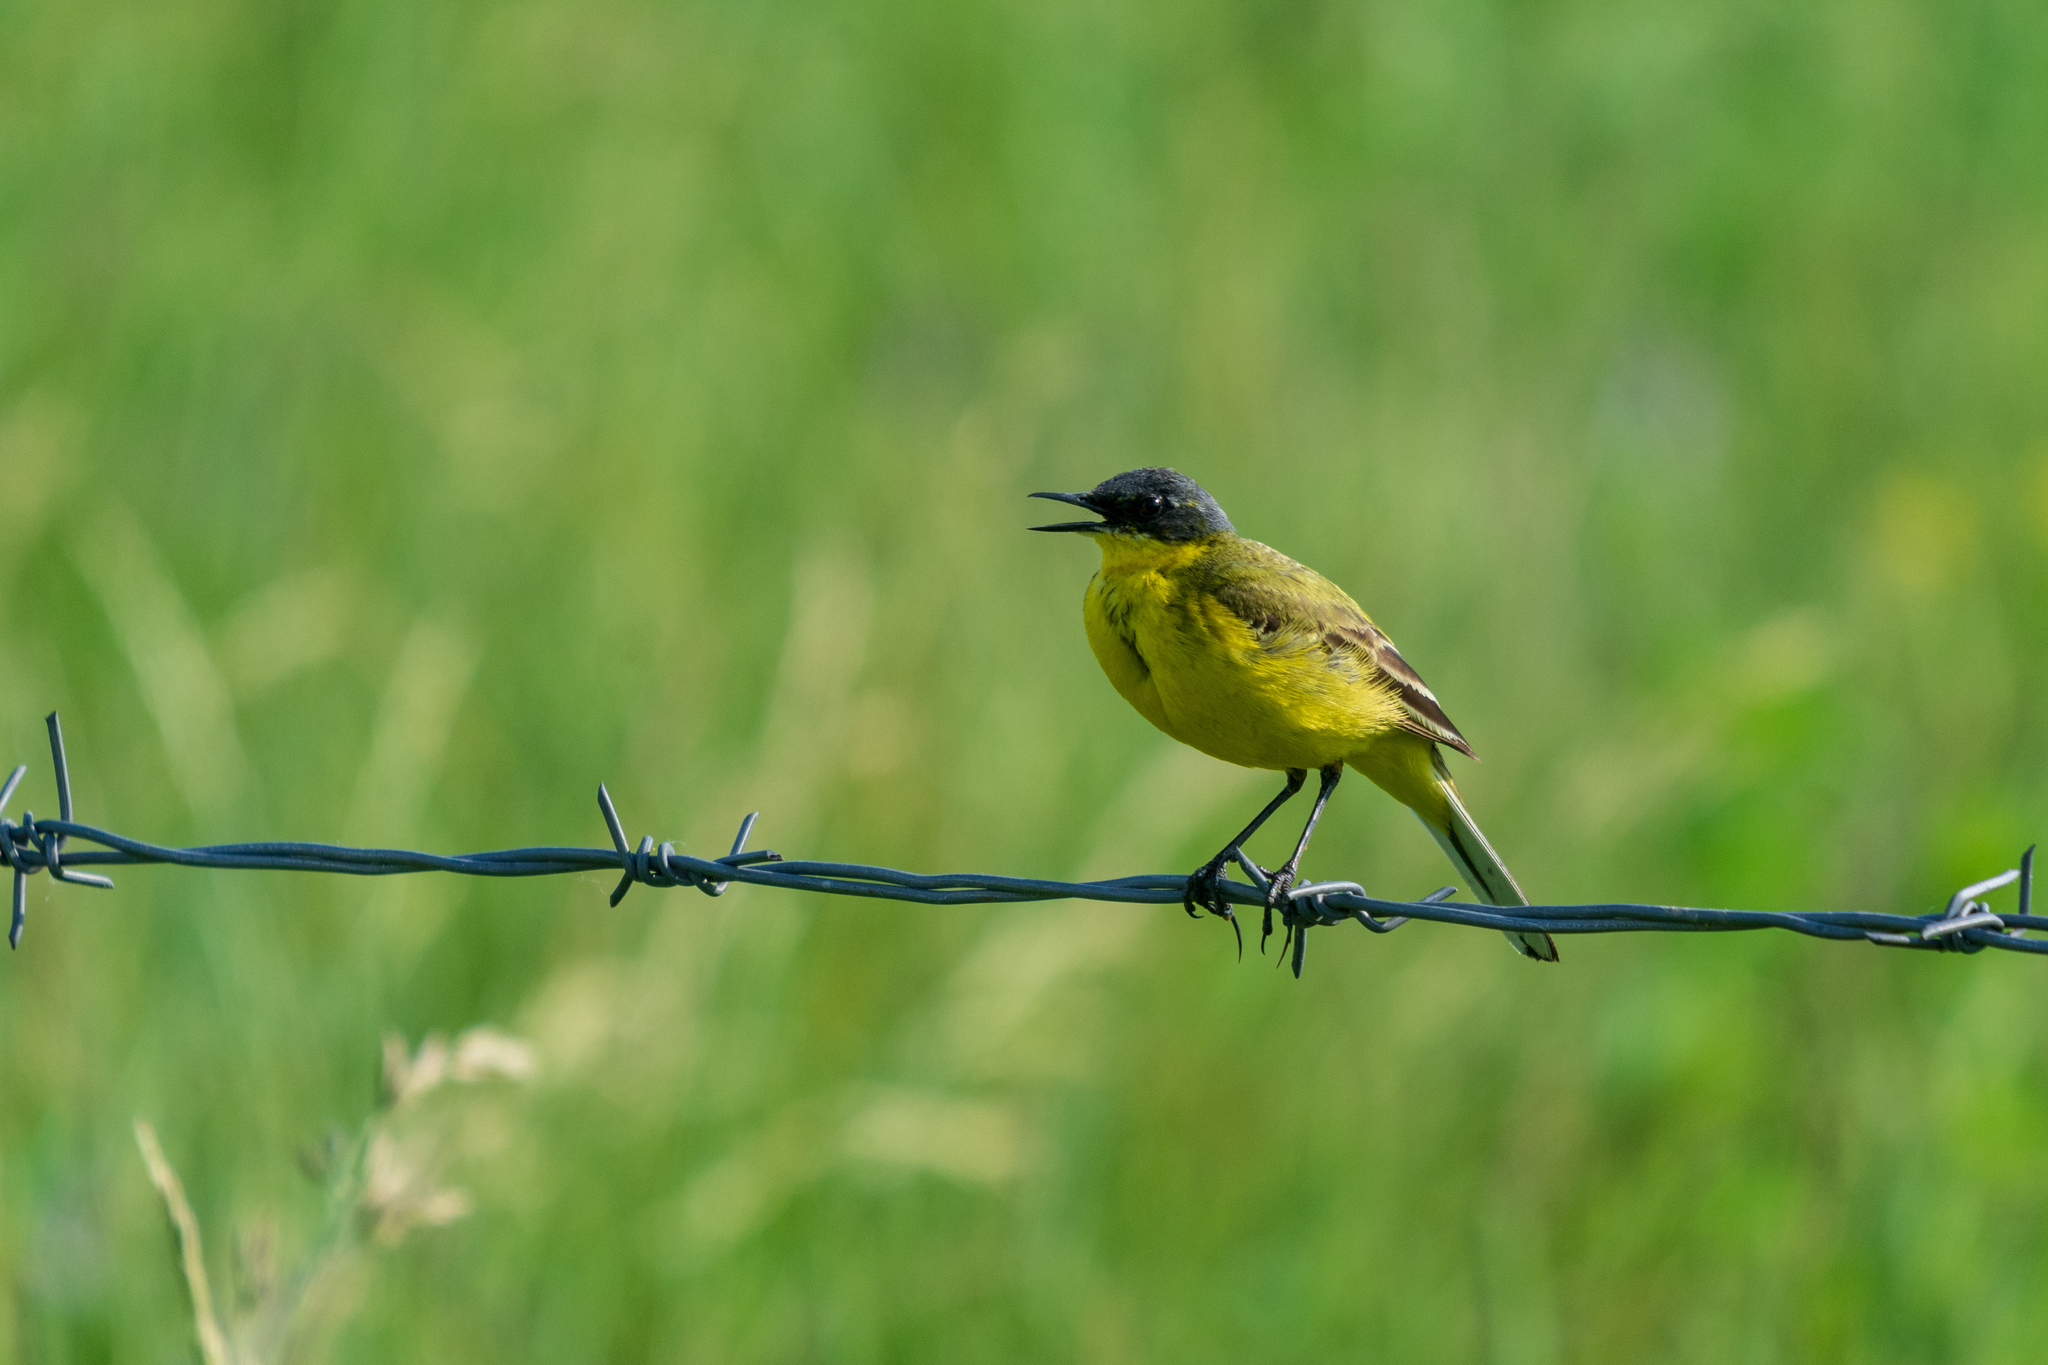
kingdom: Animalia
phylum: Chordata
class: Aves
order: Passeriformes
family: Motacillidae
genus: Motacilla
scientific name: Motacilla flava
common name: Western yellow wagtail
